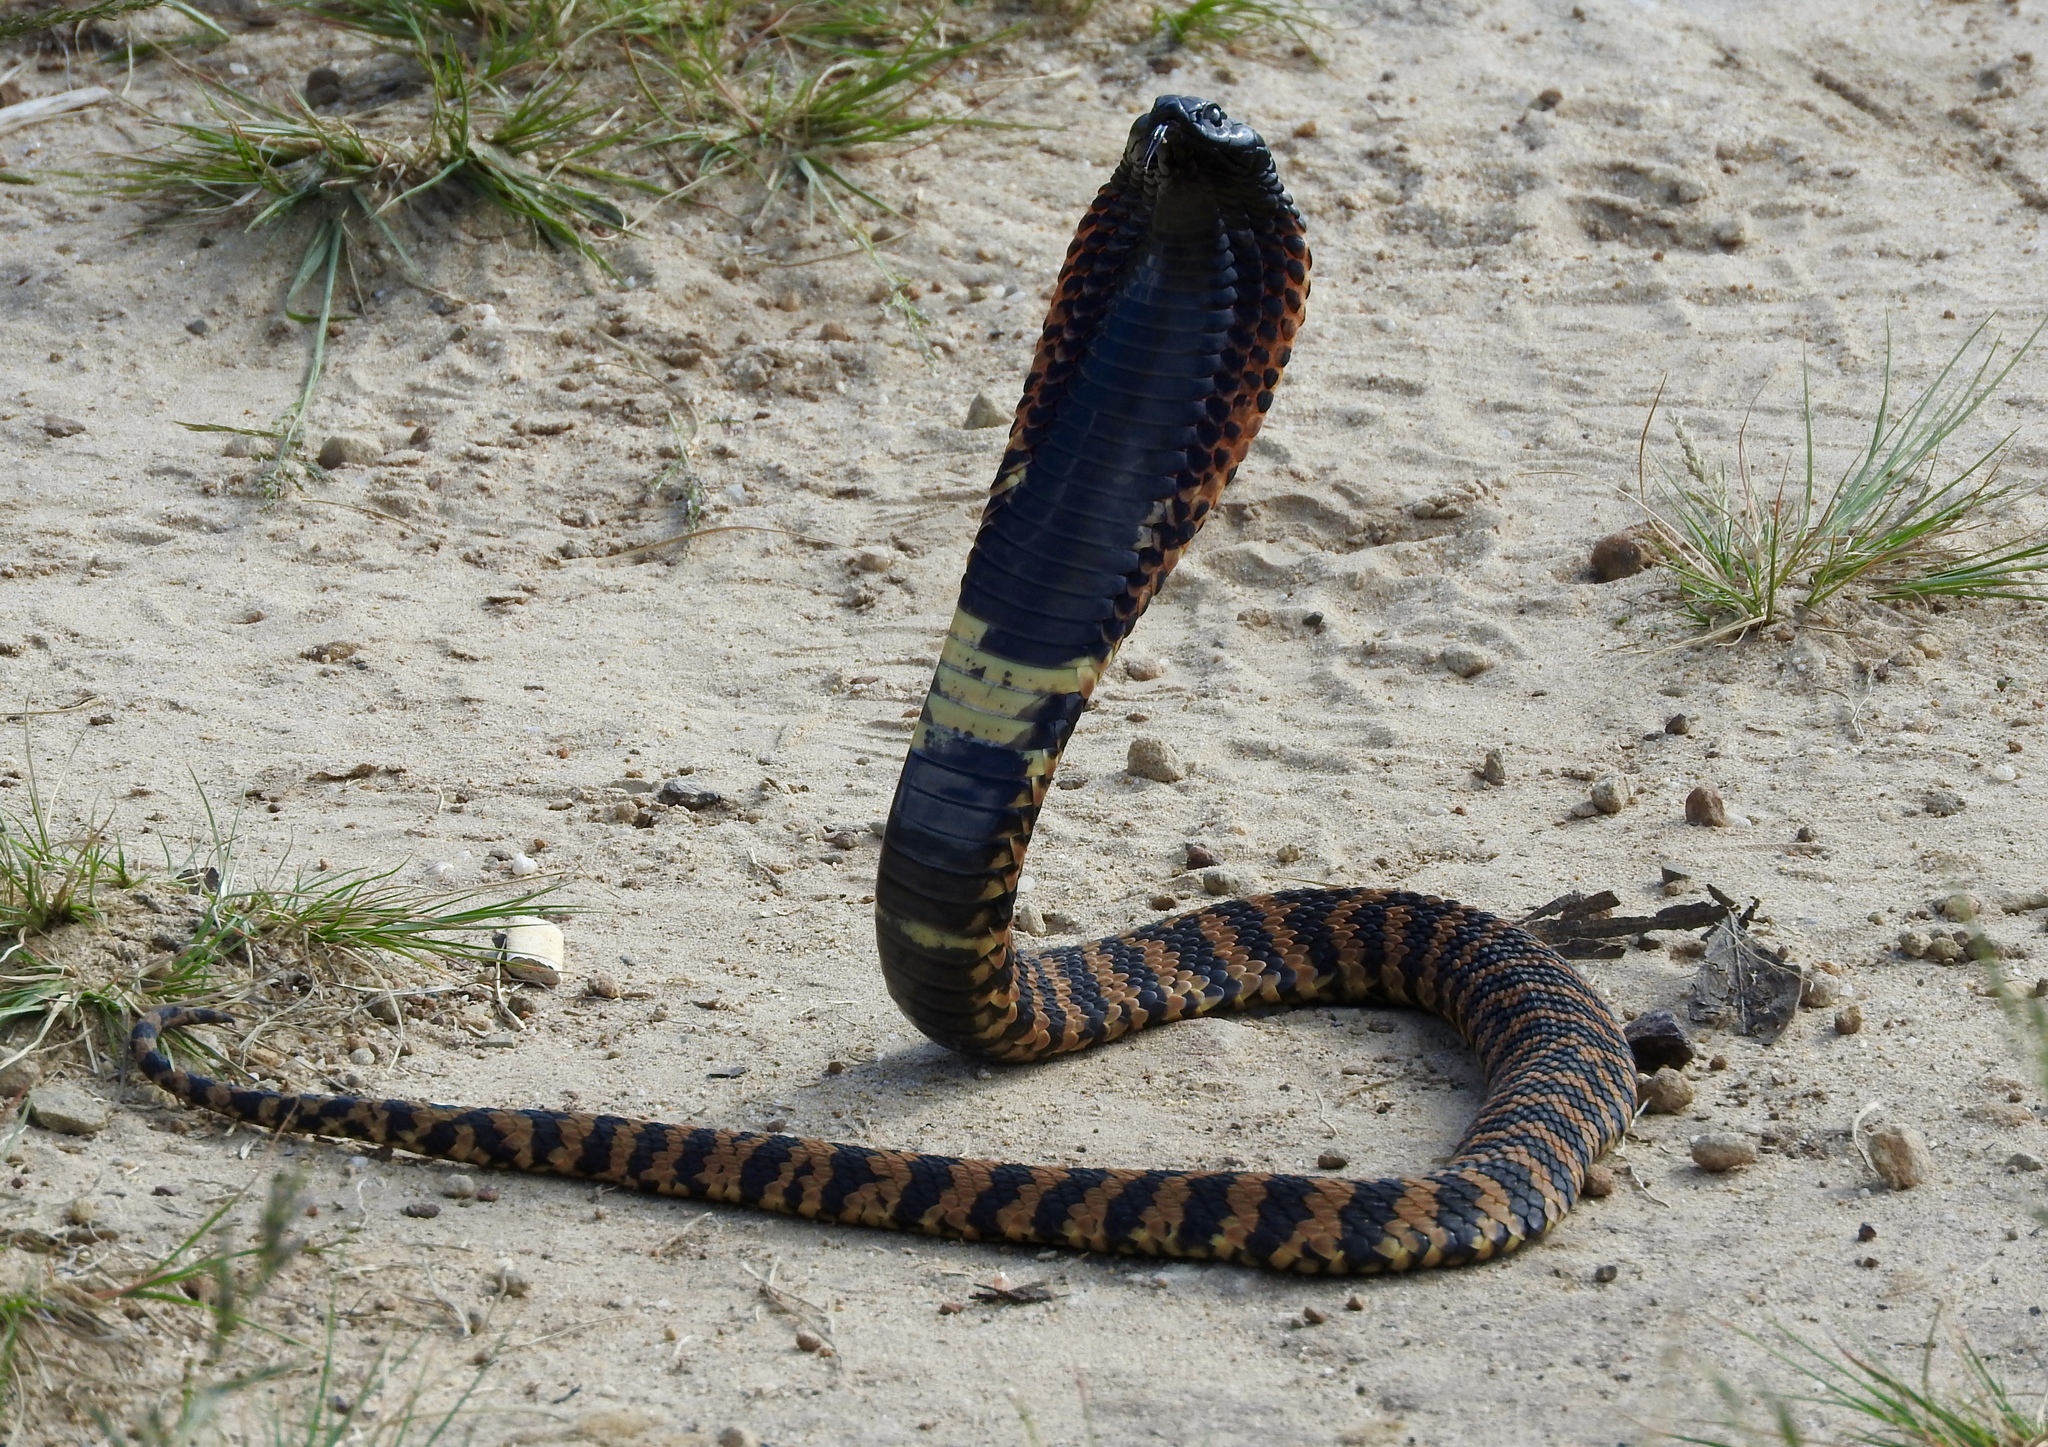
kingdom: Animalia
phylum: Chordata
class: Squamata
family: Elapidae
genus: Hemachatus
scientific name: Hemachatus haemachatus
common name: Ring-necked spitting cobra
